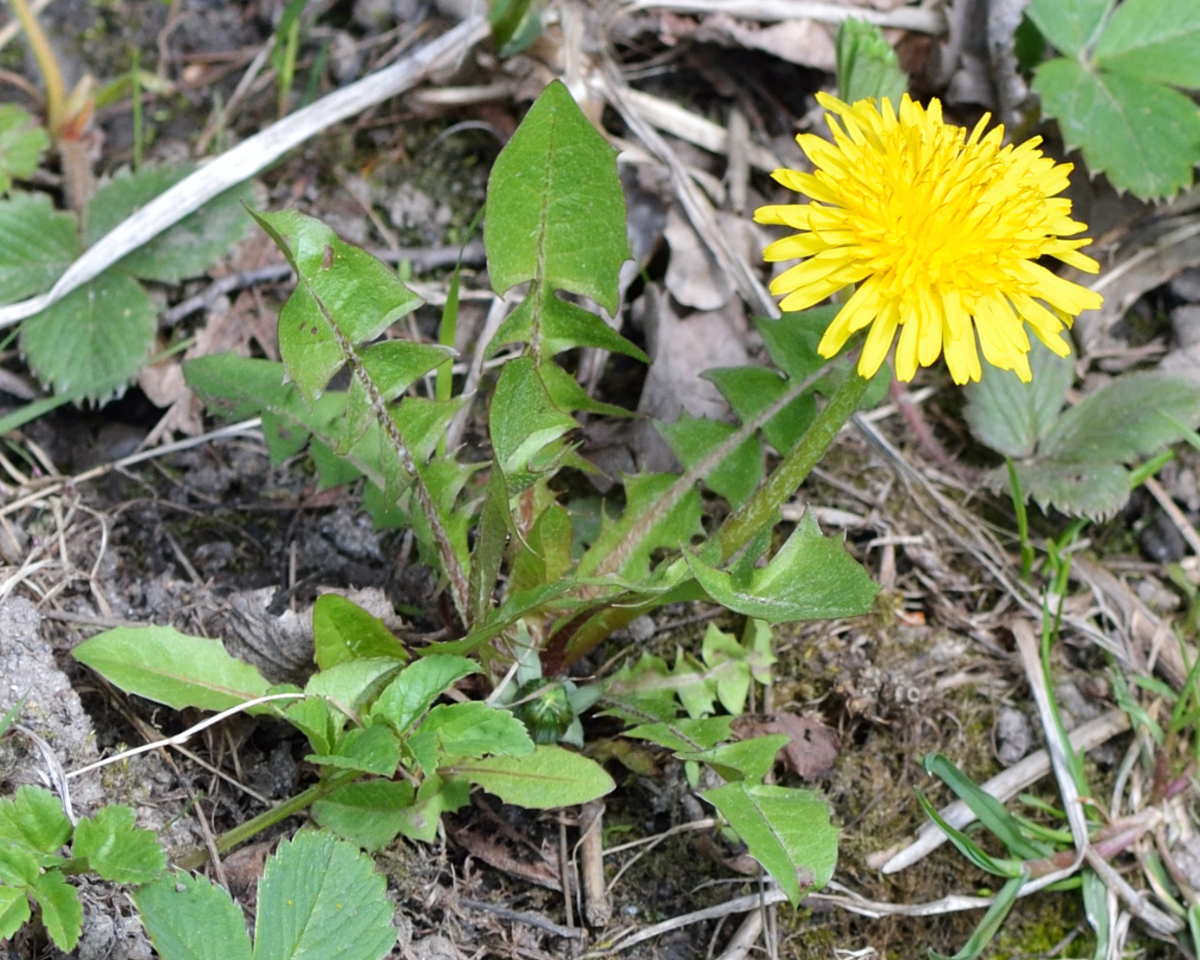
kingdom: Plantae
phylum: Tracheophyta
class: Magnoliopsida
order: Asterales
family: Asteraceae
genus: Taraxacum
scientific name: Taraxacum officinale
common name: Common dandelion
